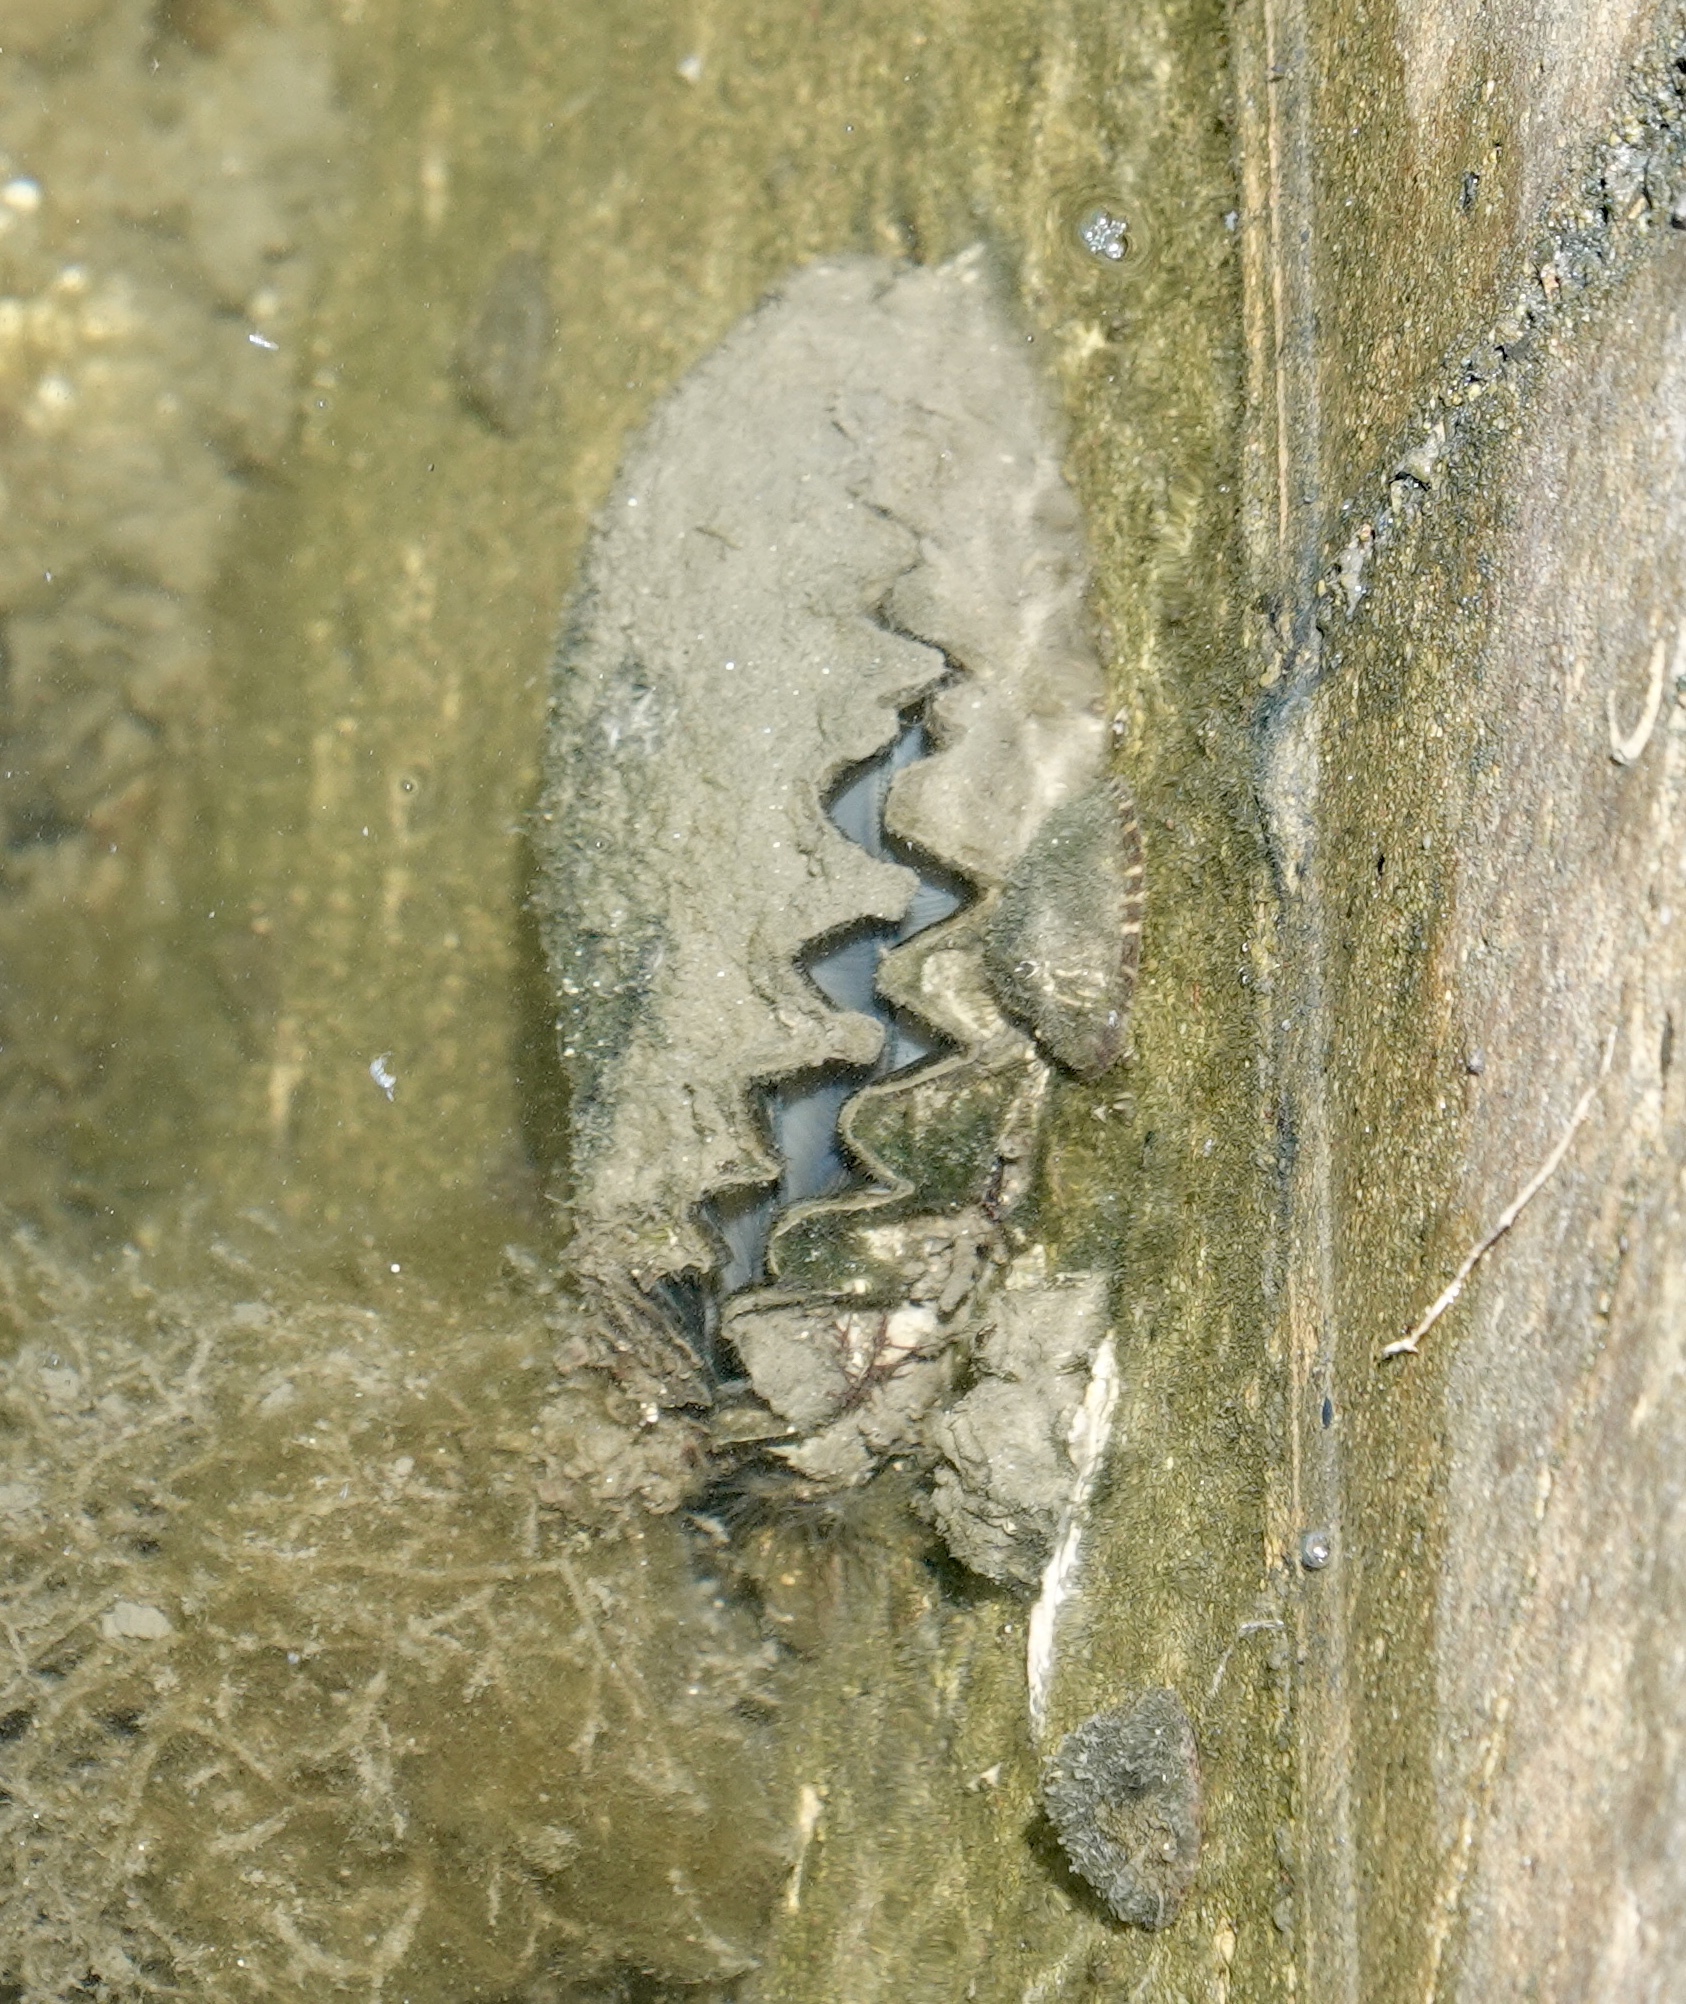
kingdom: Animalia
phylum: Mollusca
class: Bivalvia
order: Ostreida
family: Ostreidae
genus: Magallana
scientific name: Magallana gigas
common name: Pacific oyster
